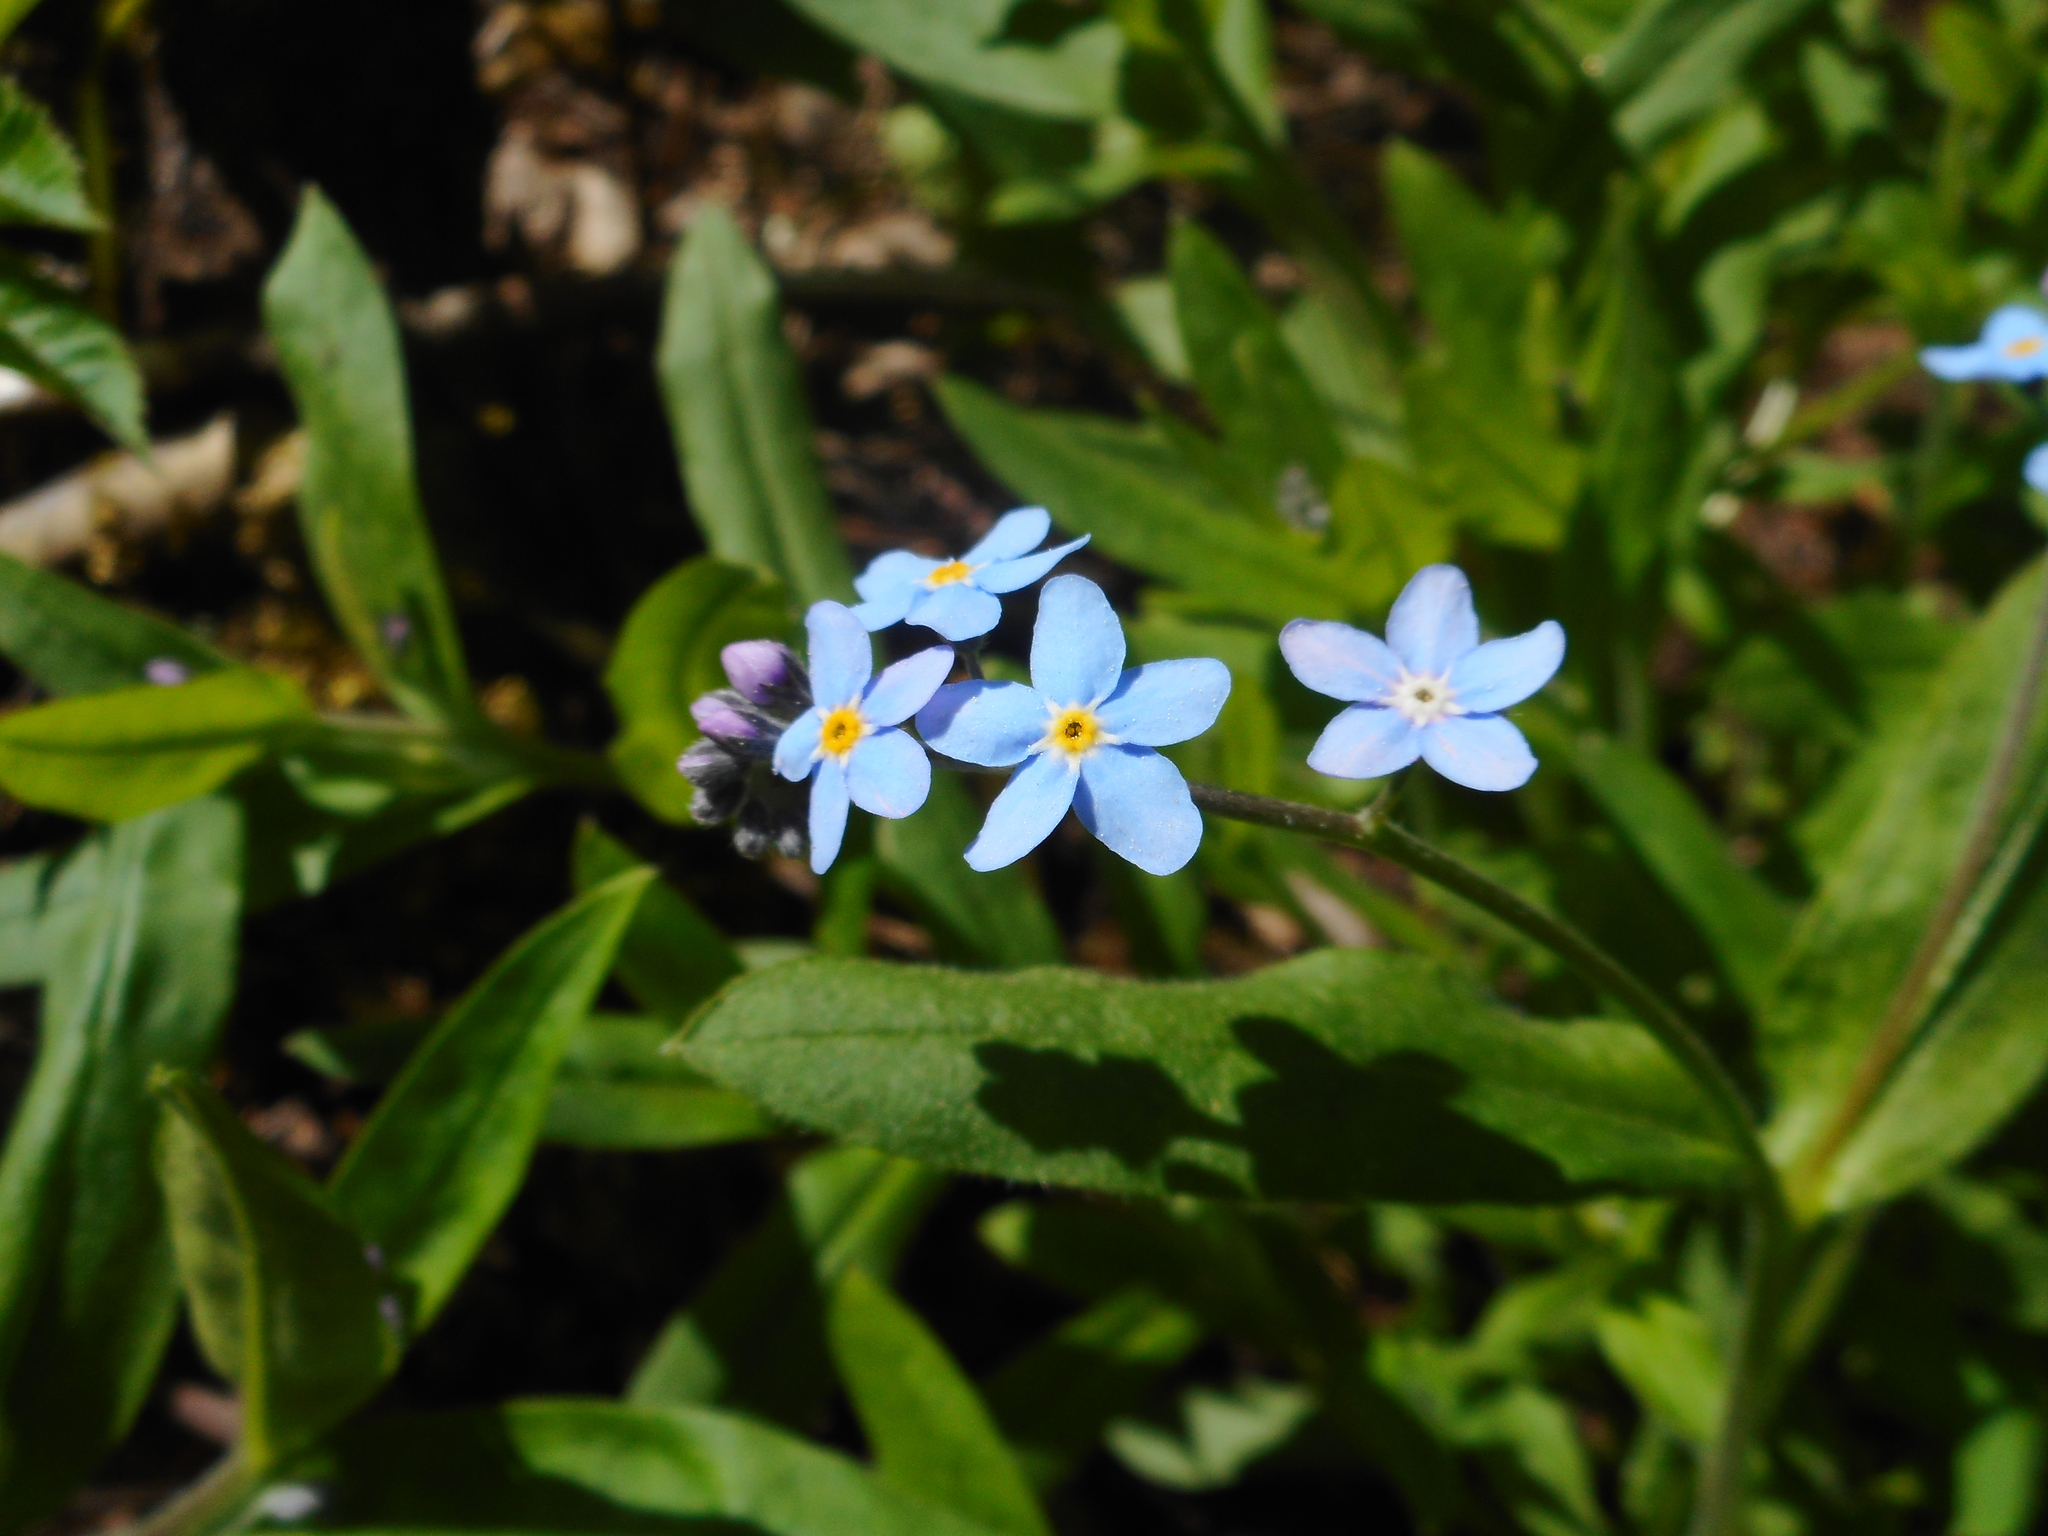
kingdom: Plantae
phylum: Tracheophyta
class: Magnoliopsida
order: Boraginales
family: Boraginaceae
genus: Myosotis
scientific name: Myosotis sylvatica
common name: Wood forget-me-not
